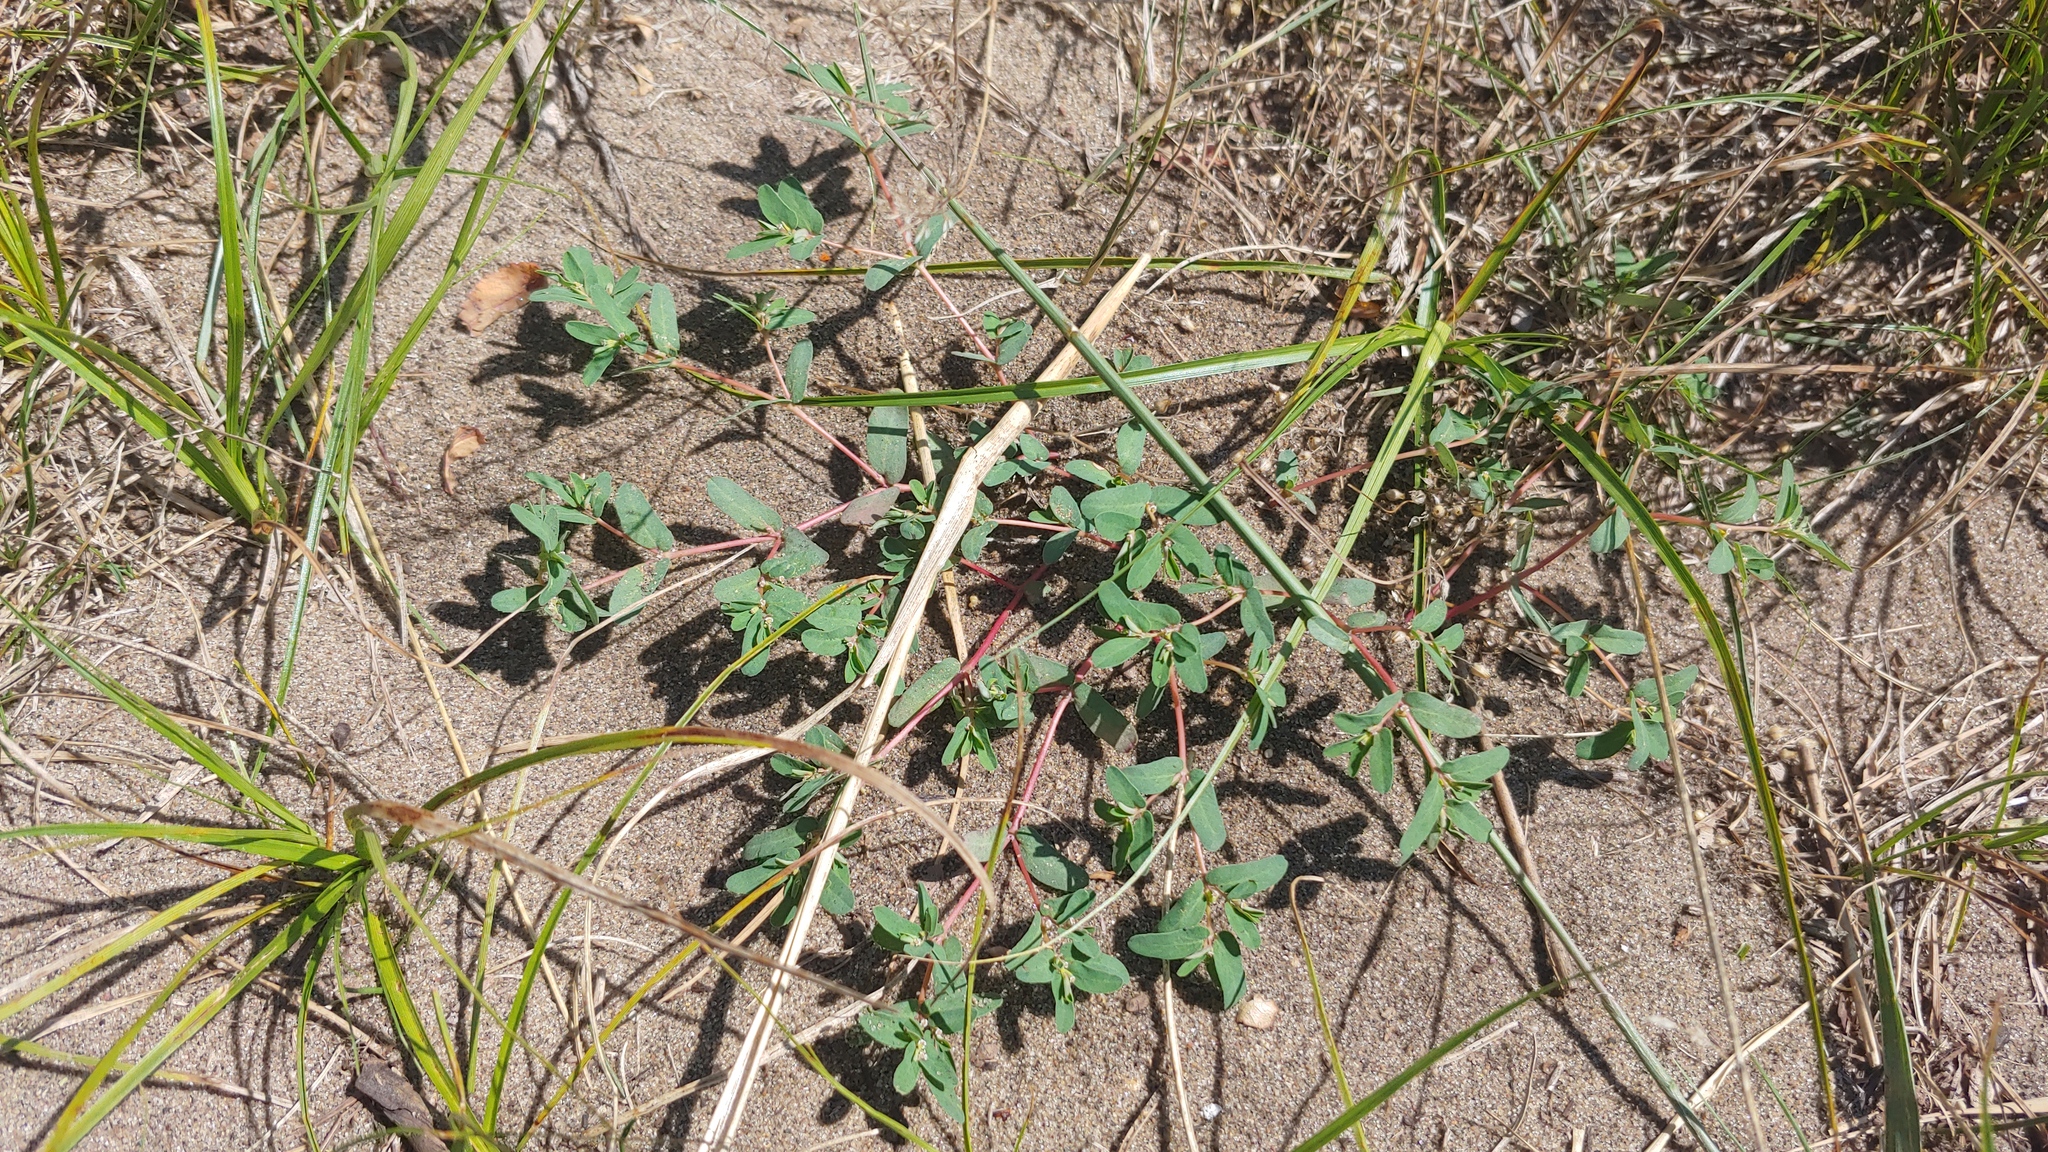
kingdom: Plantae
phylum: Tracheophyta
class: Magnoliopsida
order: Malpighiales
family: Euphorbiaceae
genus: Euphorbia
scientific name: Euphorbia glyptosperma
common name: Corrugate-seeded spurge
